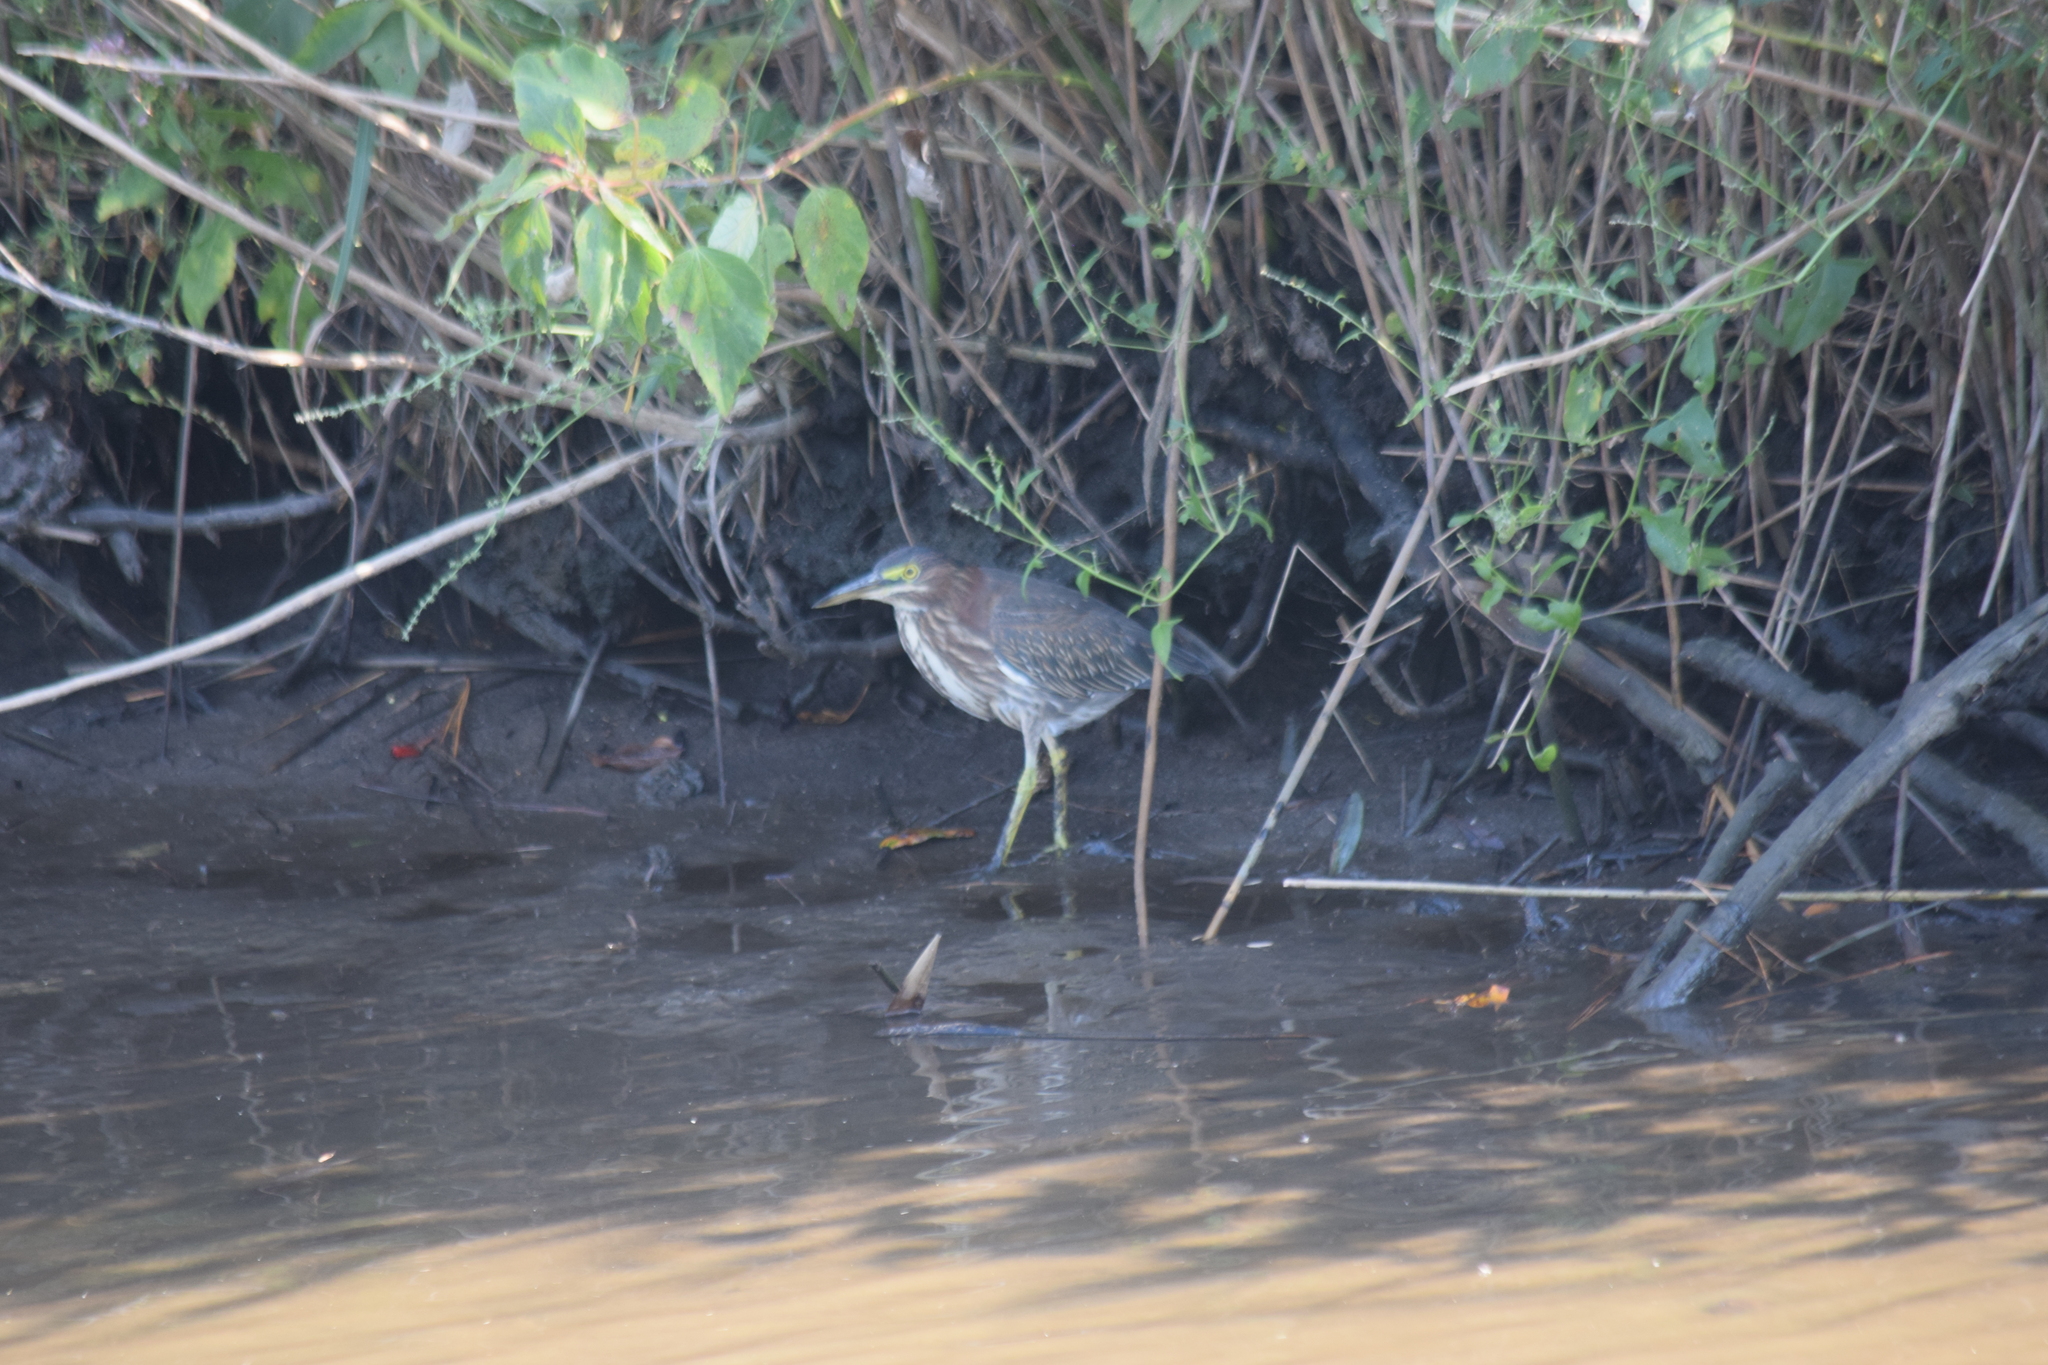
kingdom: Animalia
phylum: Chordata
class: Aves
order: Pelecaniformes
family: Ardeidae
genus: Butorides
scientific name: Butorides virescens
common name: Green heron
